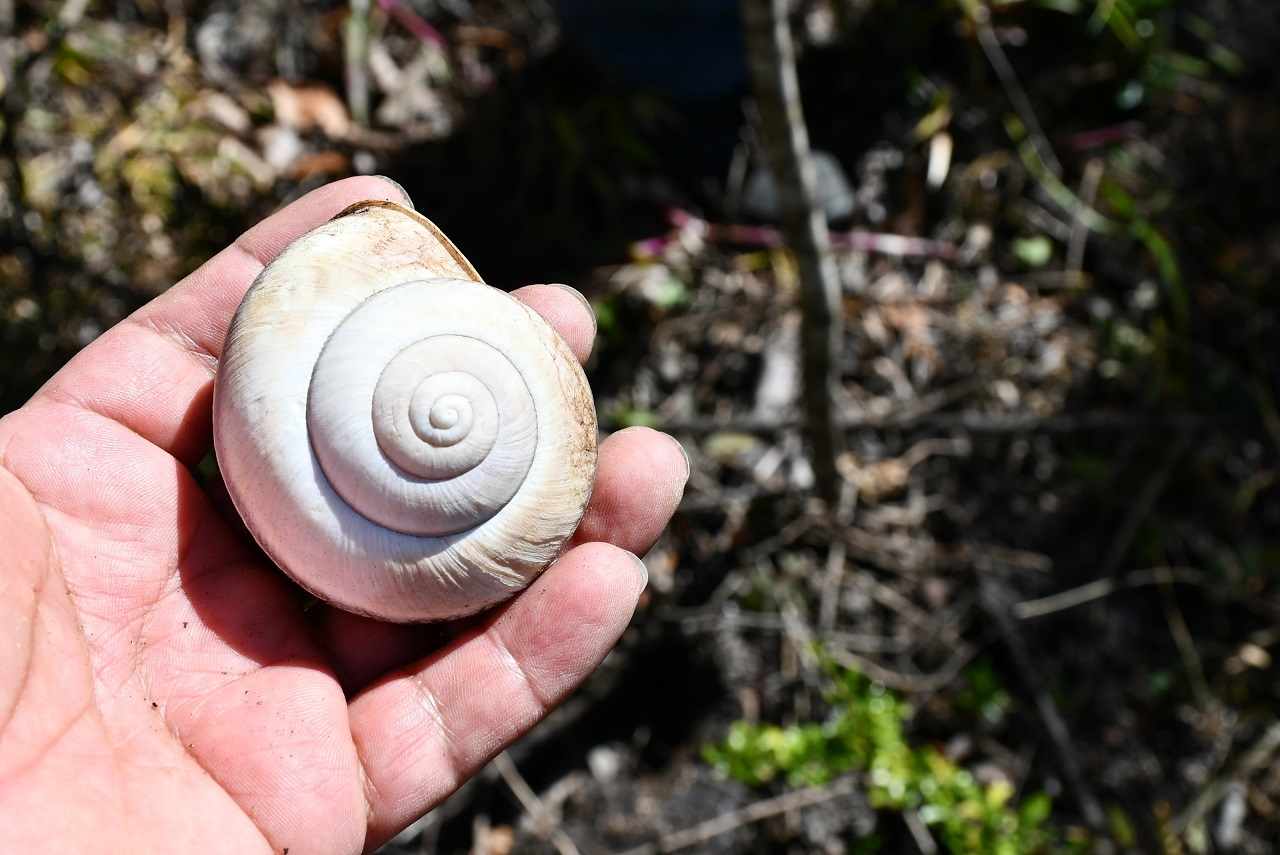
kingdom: Animalia
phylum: Mollusca
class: Gastropoda
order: Stylommatophora
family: Xanthonychidae
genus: Lysinoe
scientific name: Lysinoe ghiesbreghti
